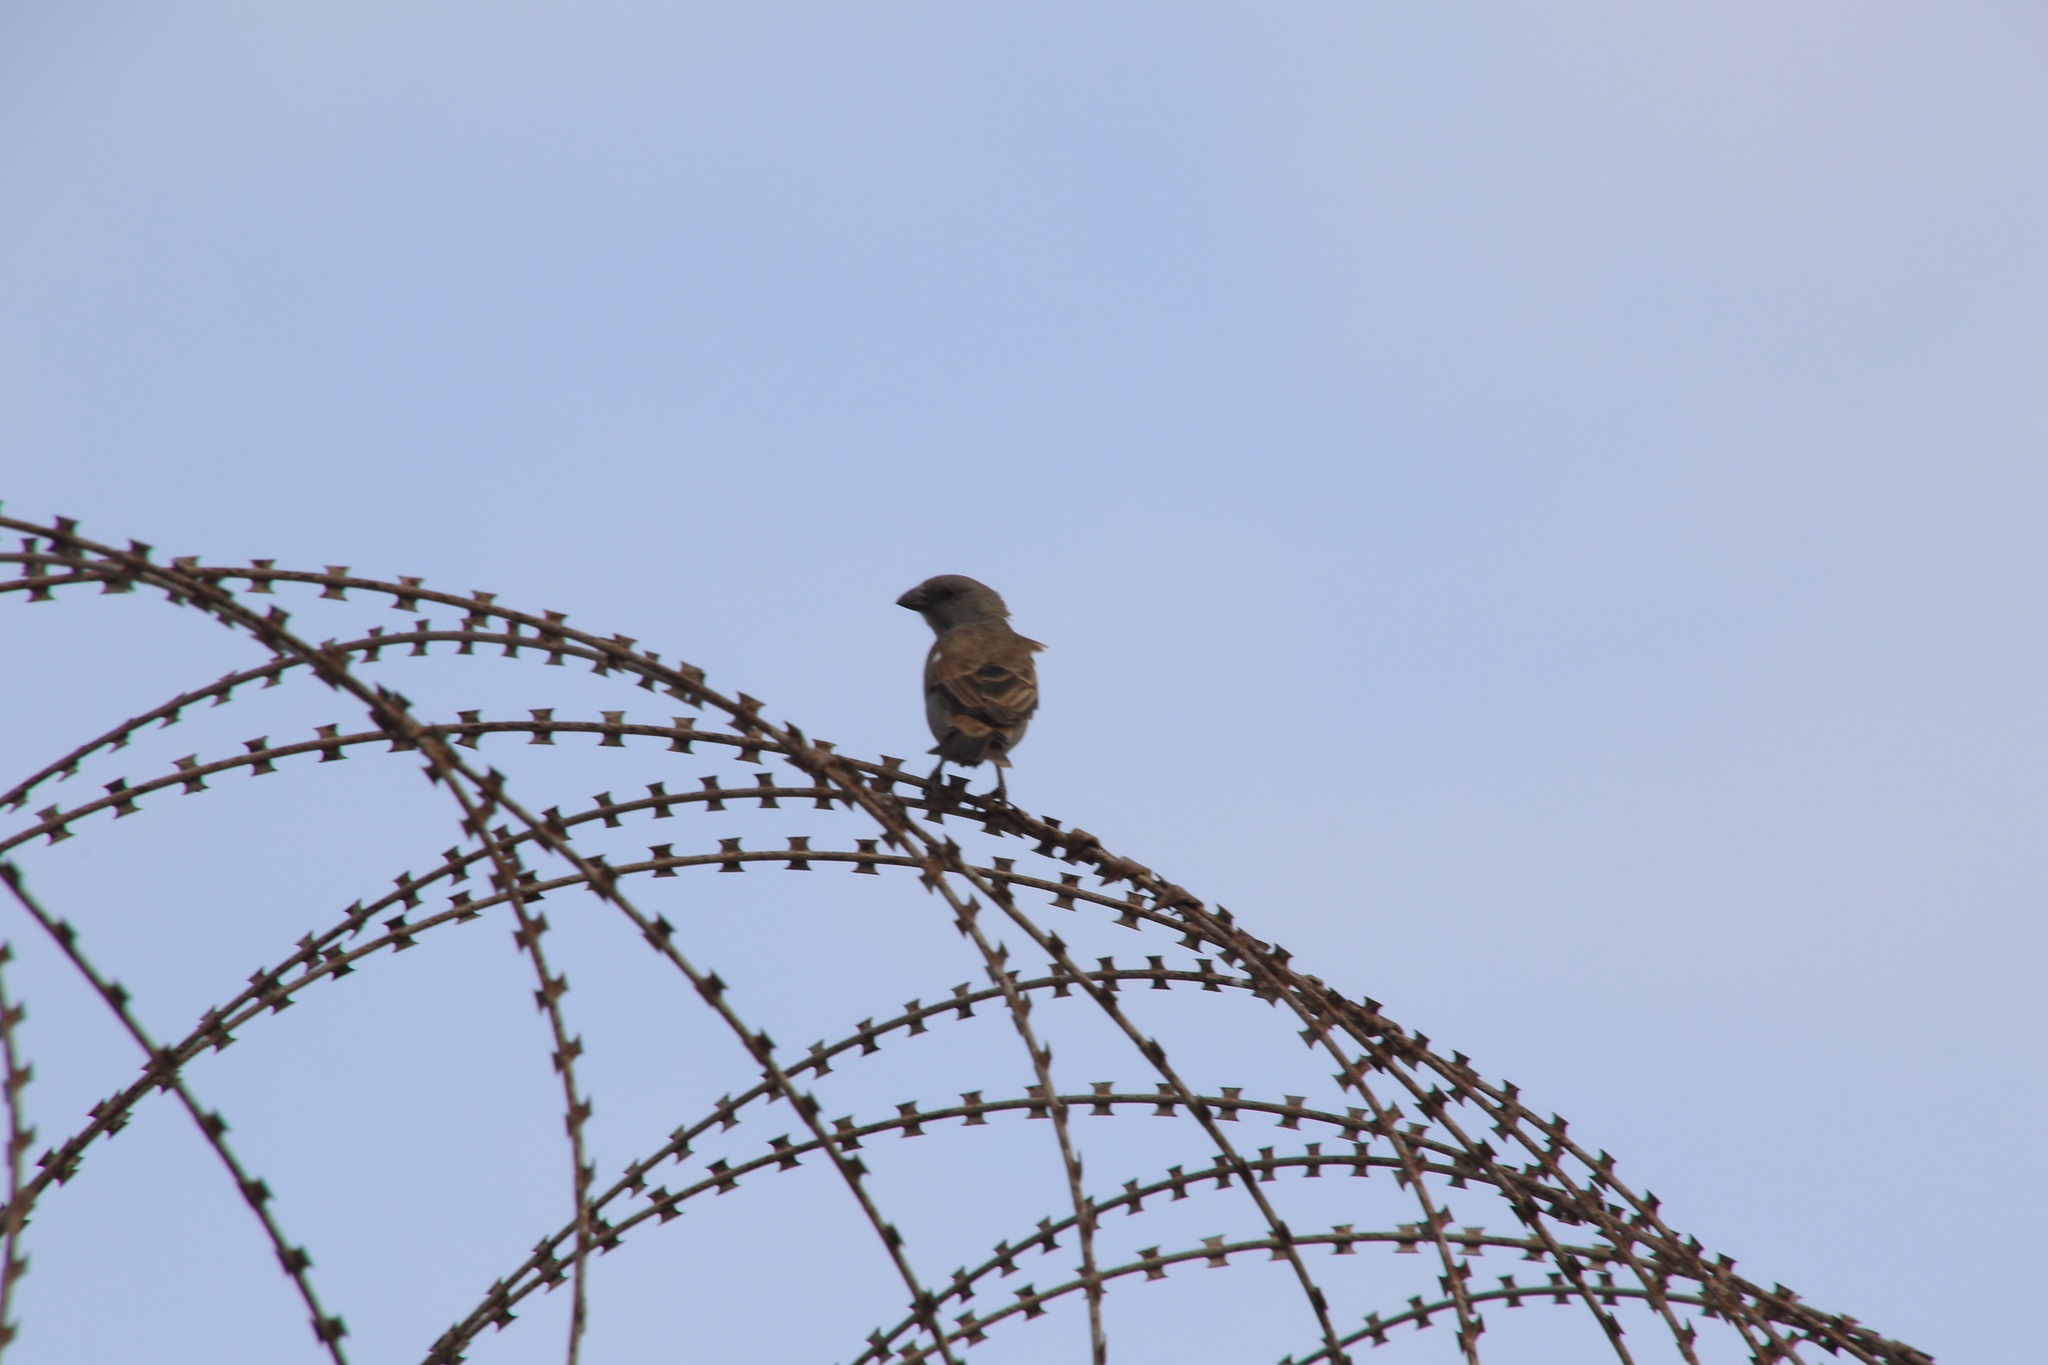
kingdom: Animalia
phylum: Chordata
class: Aves
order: Passeriformes
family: Passeridae
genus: Passer
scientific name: Passer griseus
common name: Northern grey-headed sparrow
